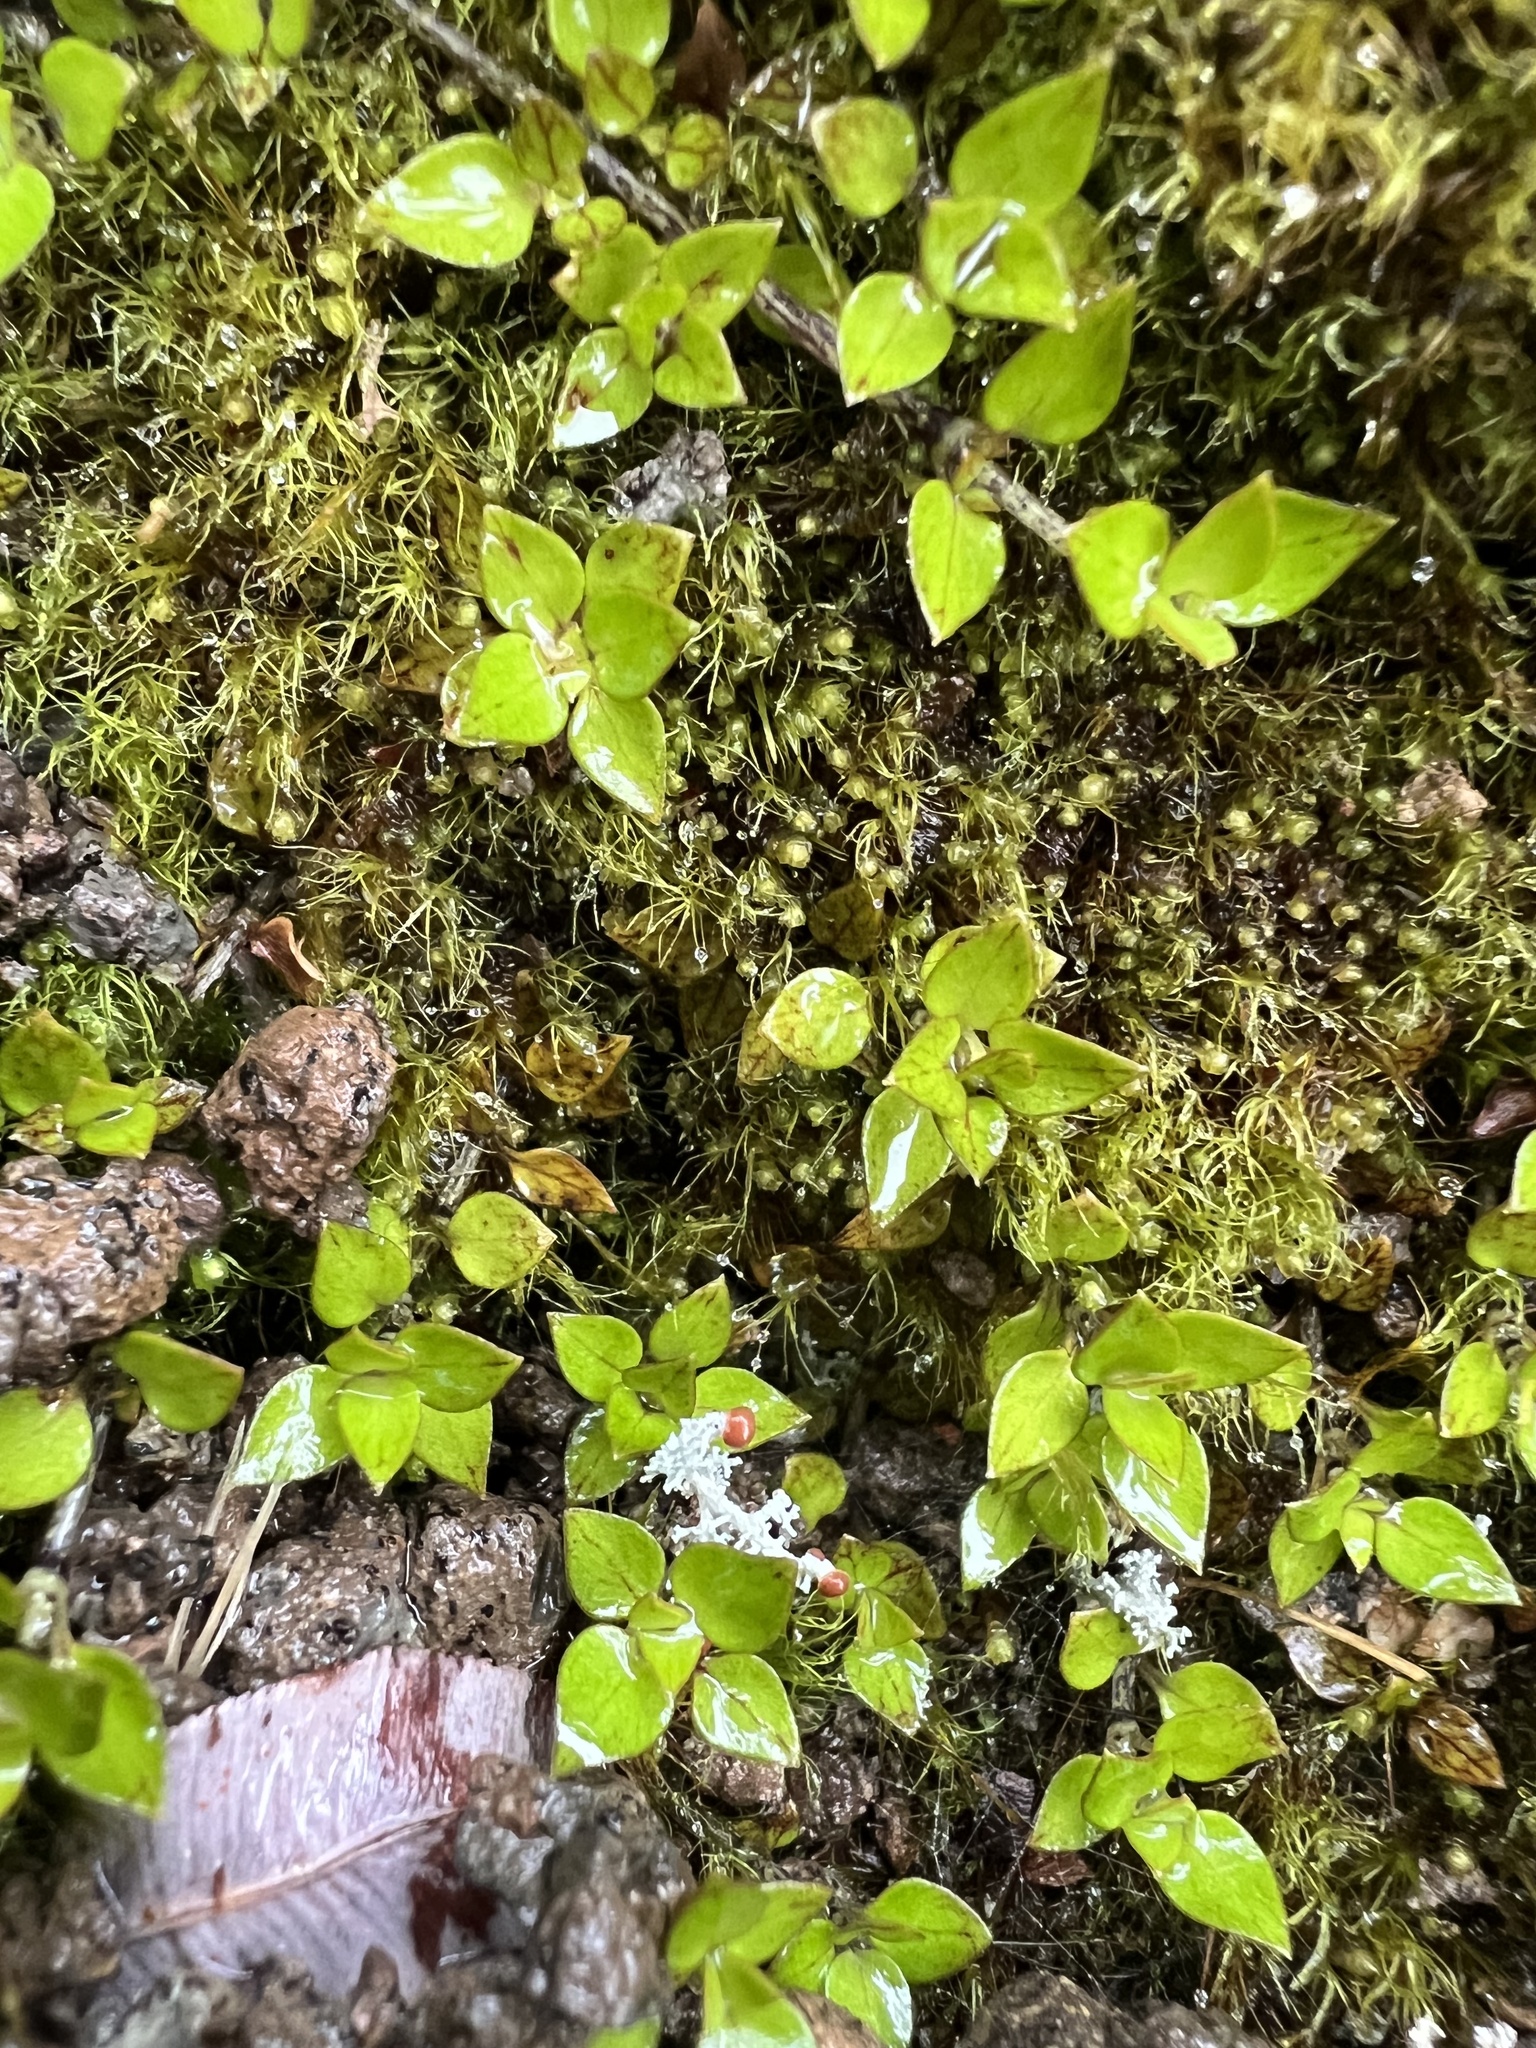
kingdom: Plantae
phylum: Tracheophyta
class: Magnoliopsida
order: Gentianales
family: Rubiaceae
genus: Nertera
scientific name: Nertera granadensis
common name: Beadplant
